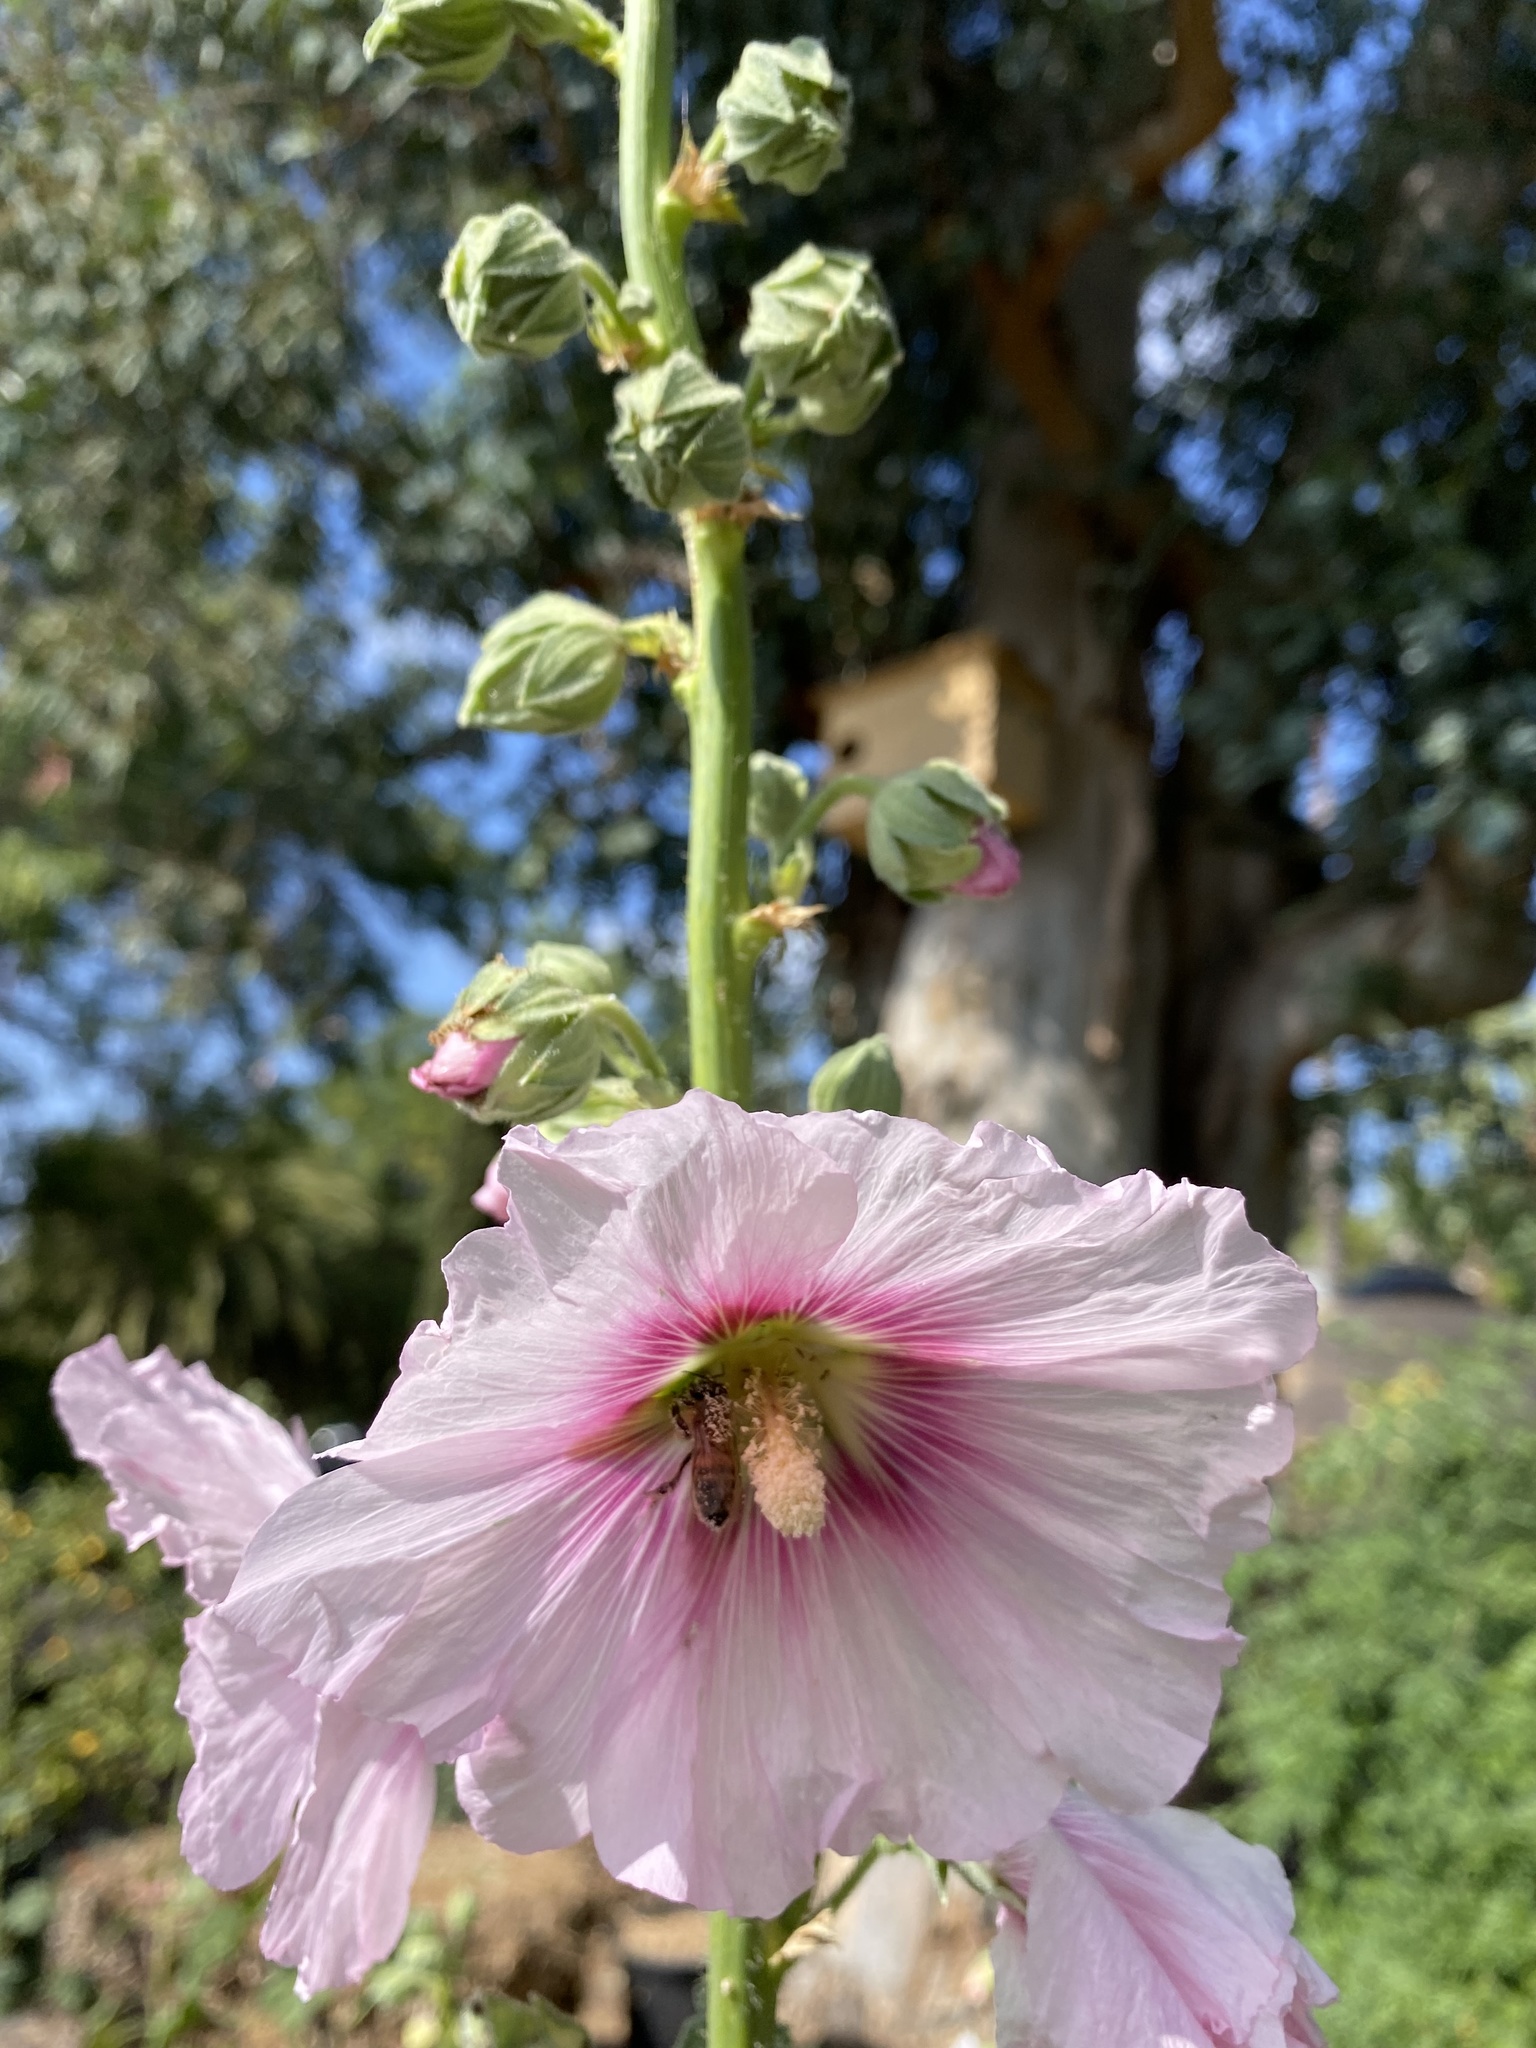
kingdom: Animalia
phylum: Arthropoda
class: Insecta
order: Hymenoptera
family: Apidae
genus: Apis
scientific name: Apis mellifera
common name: Honey bee
